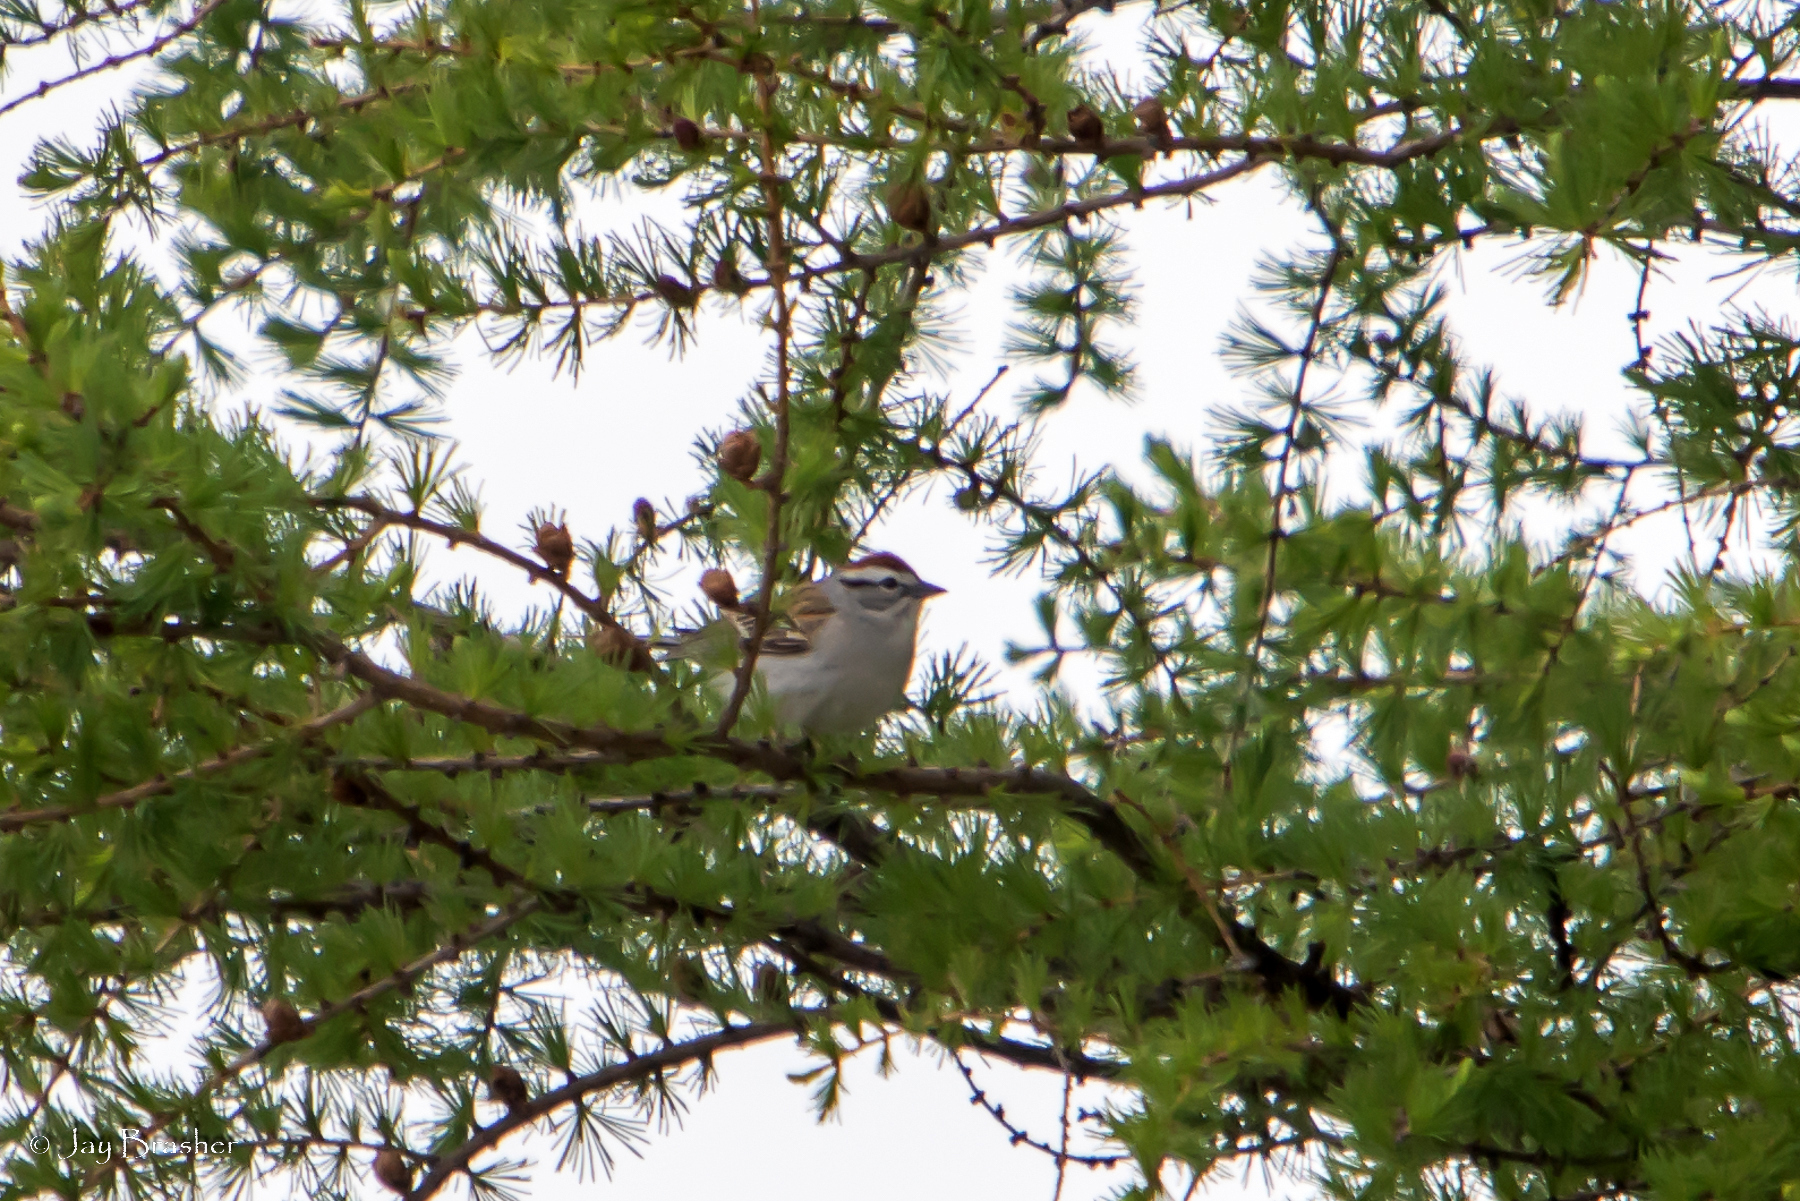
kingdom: Animalia
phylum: Chordata
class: Aves
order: Passeriformes
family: Passerellidae
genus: Spizella
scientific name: Spizella passerina
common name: Chipping sparrow
